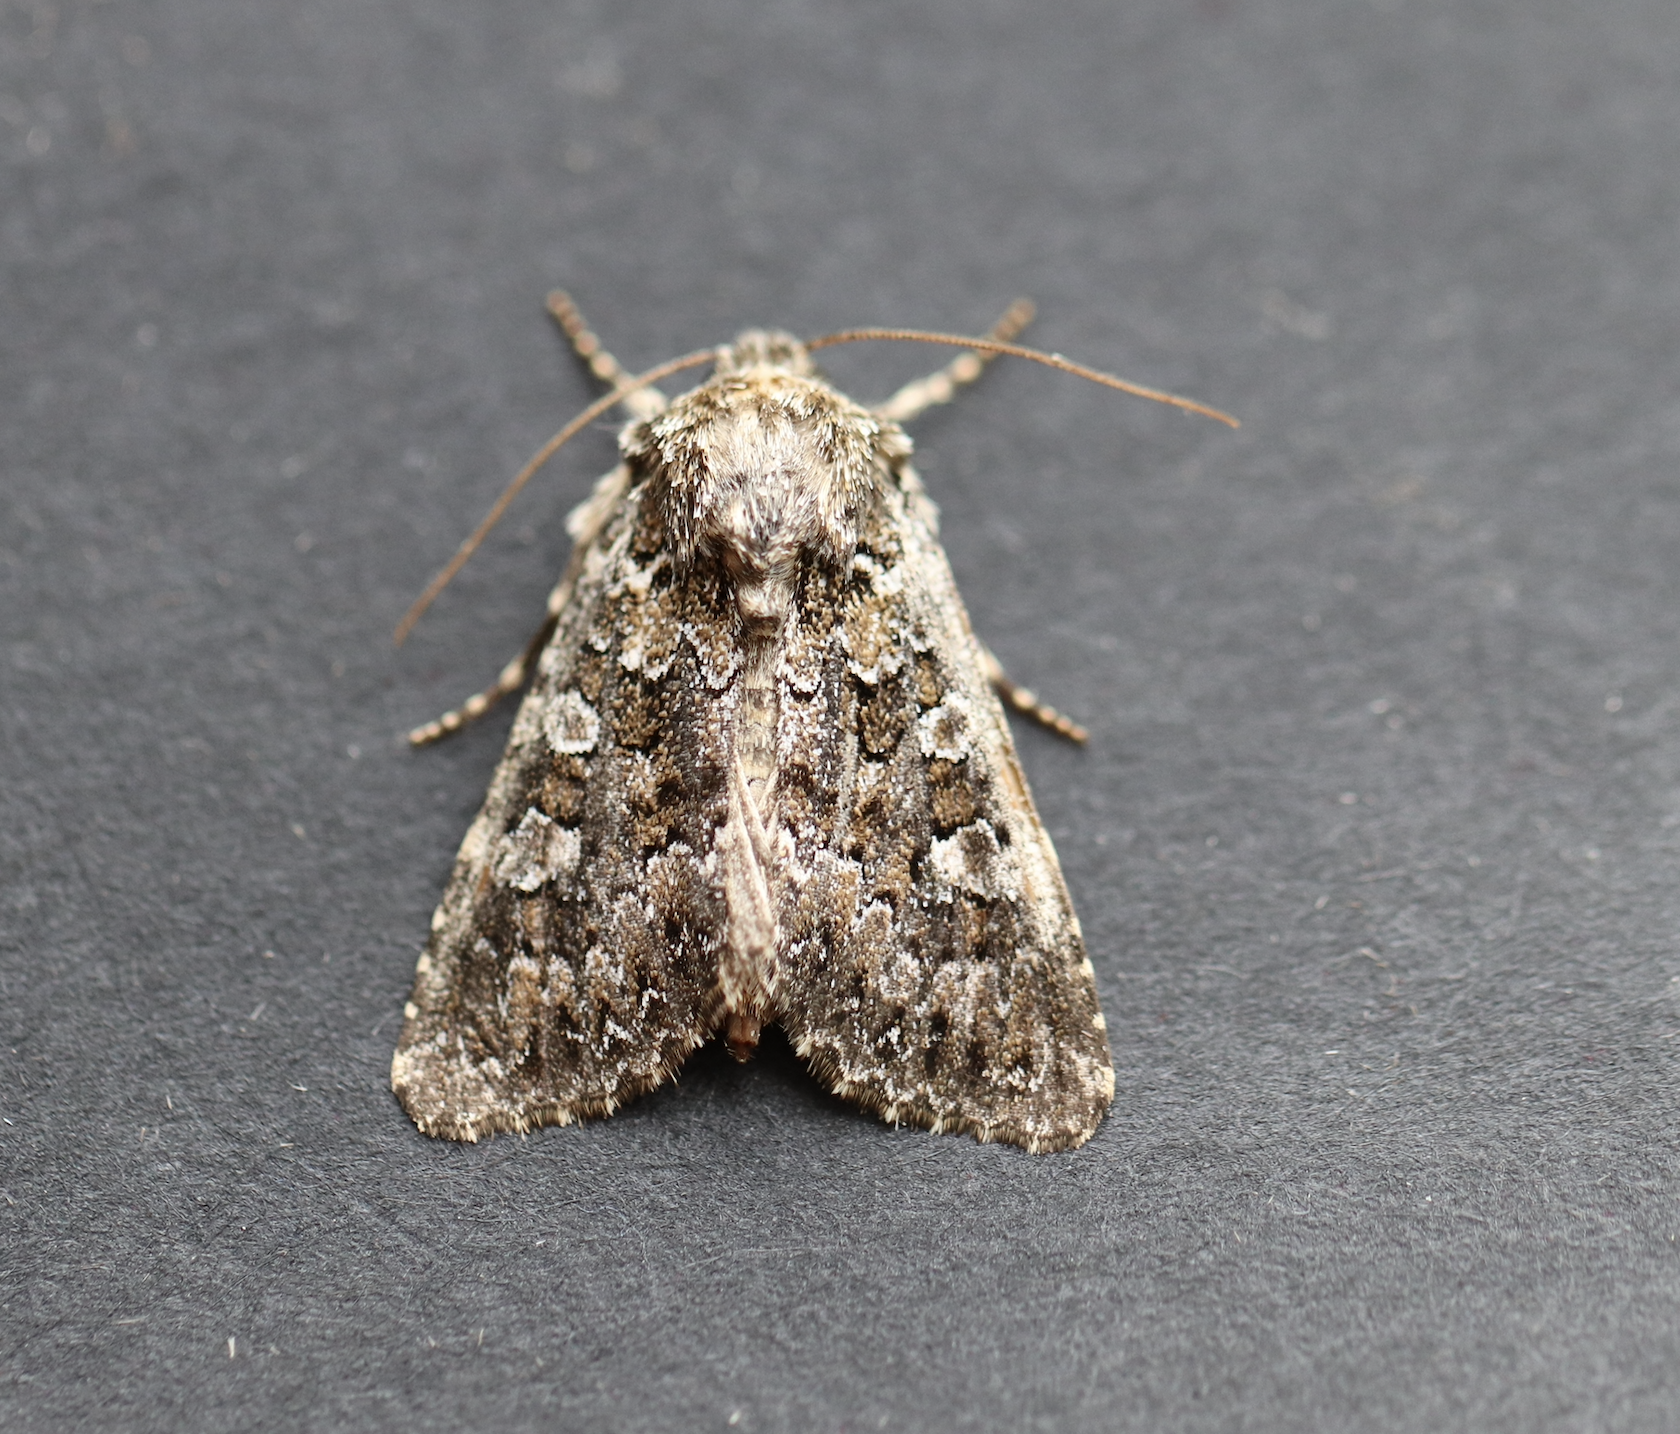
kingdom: Animalia
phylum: Arthropoda
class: Insecta
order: Lepidoptera
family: Noctuidae
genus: Hadena
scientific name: Hadena magnolii
